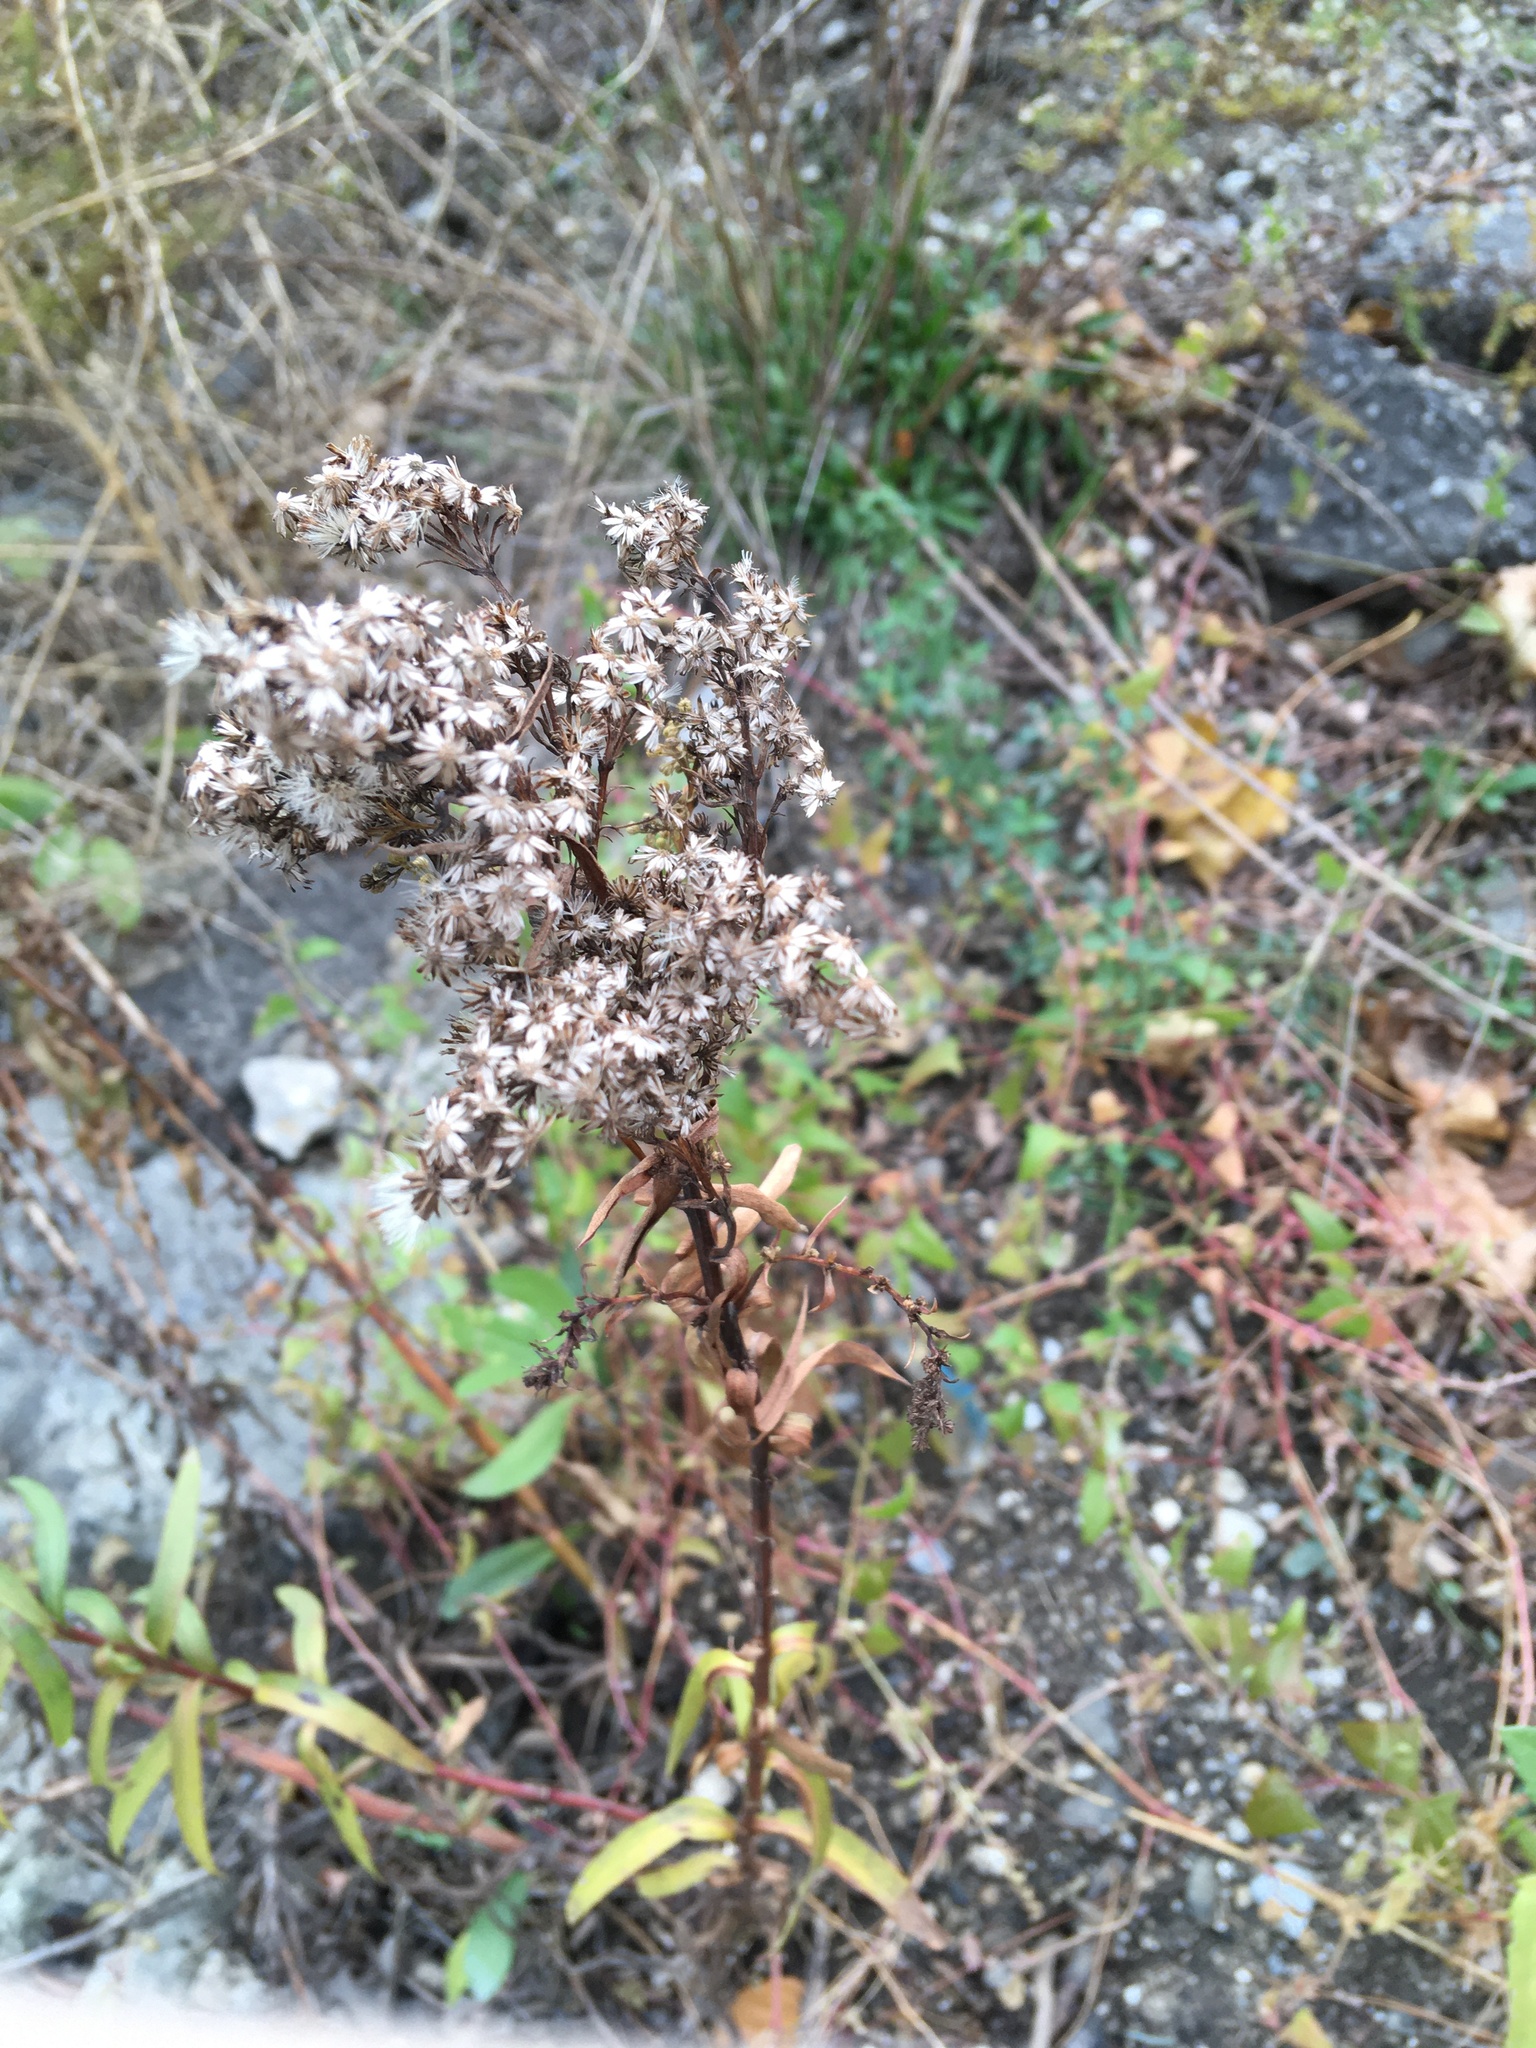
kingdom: Plantae
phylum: Tracheophyta
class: Magnoliopsida
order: Asterales
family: Asteraceae
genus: Solidago
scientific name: Solidago sempervirens
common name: Salt-marsh goldenrod
